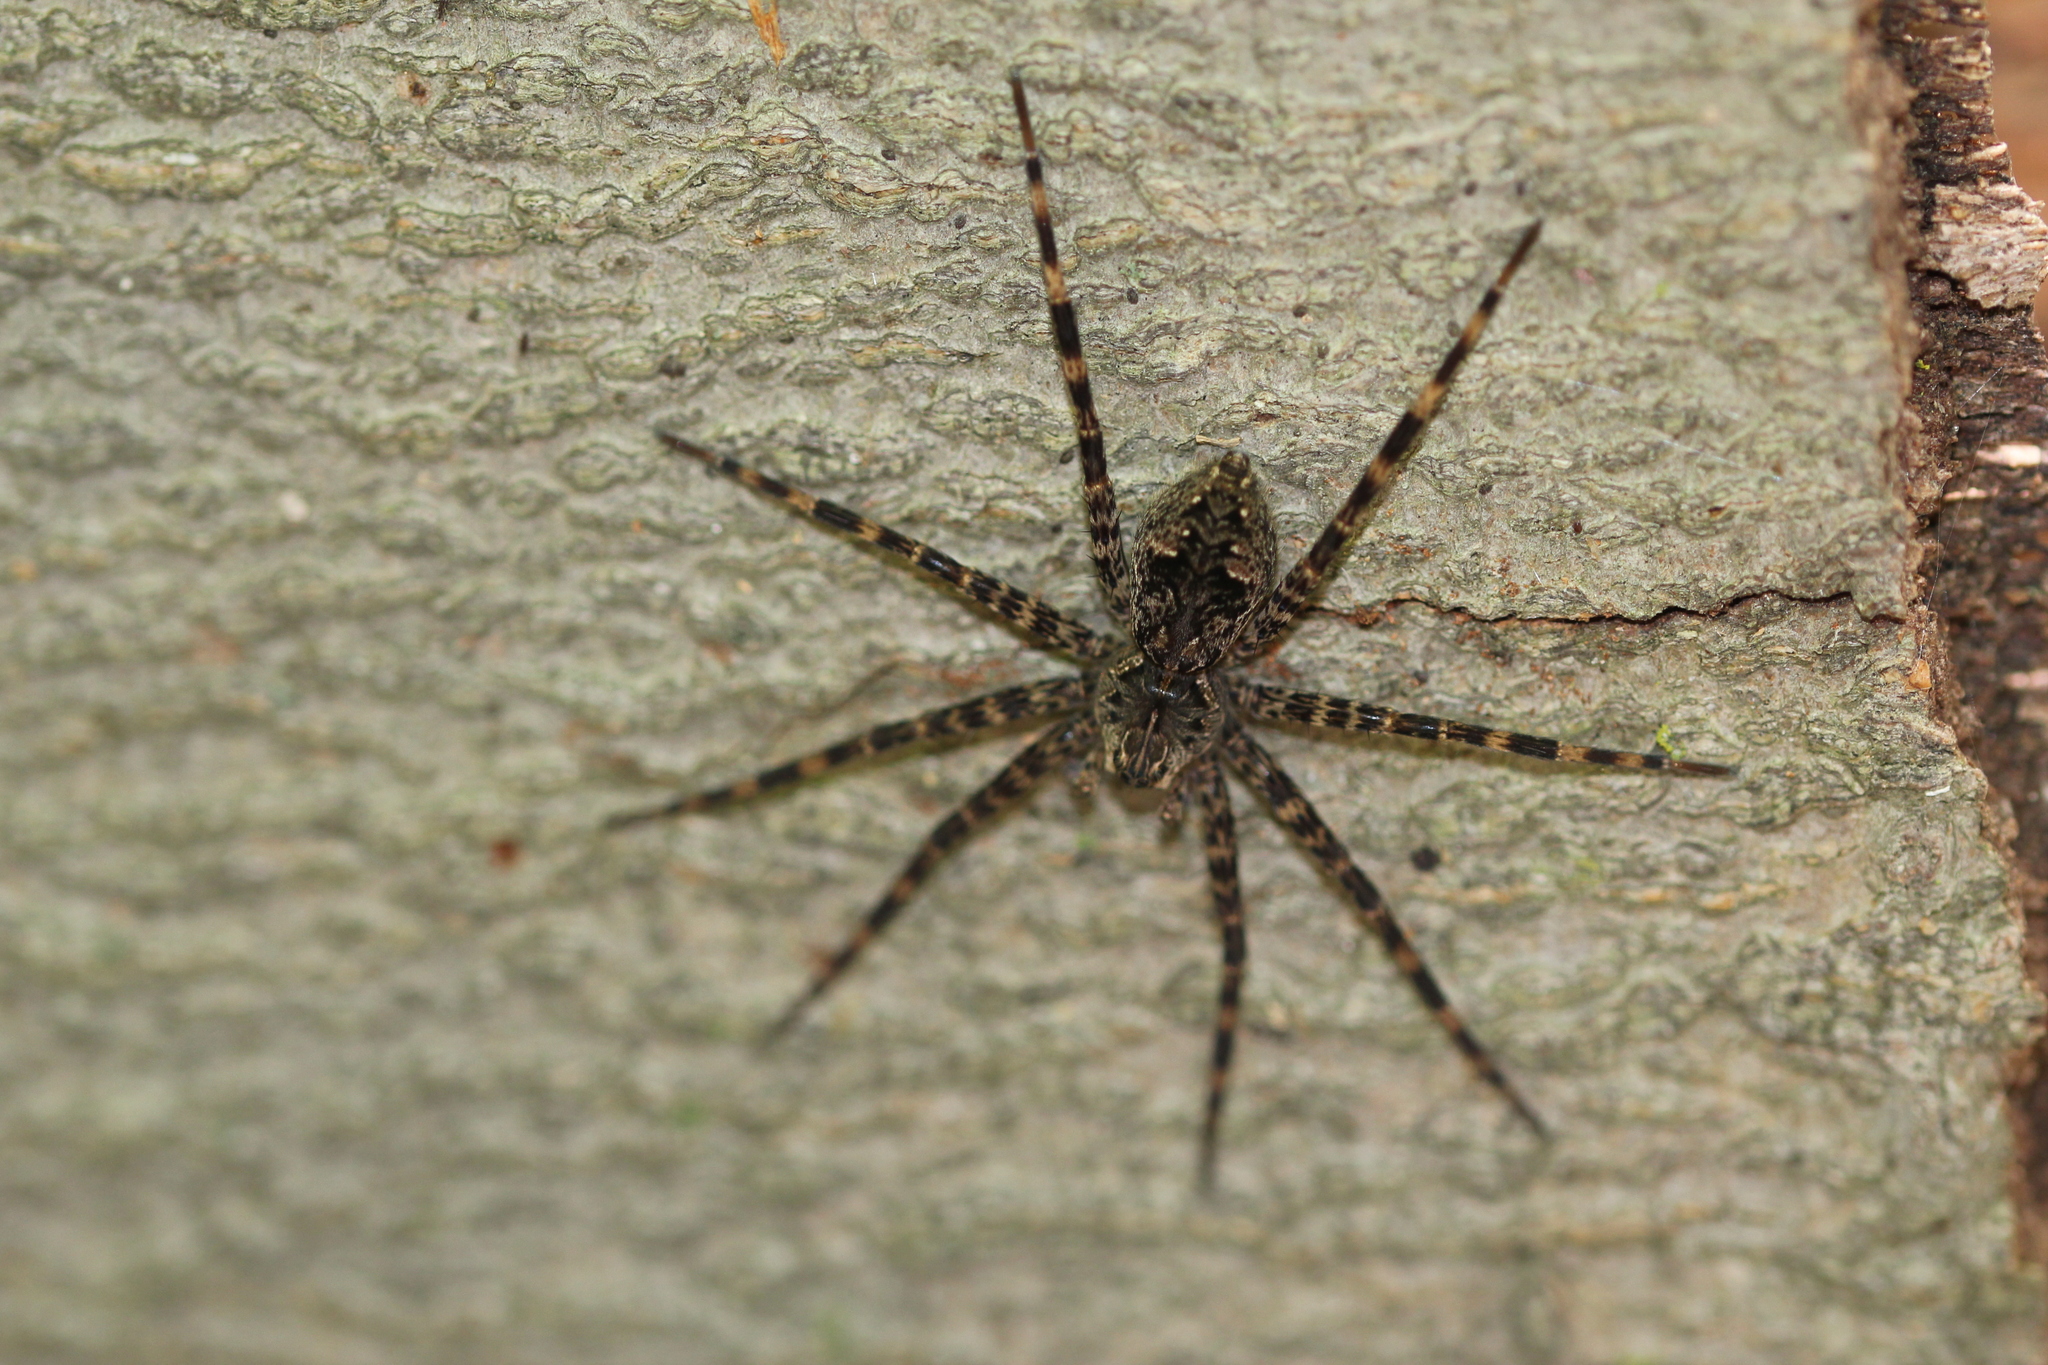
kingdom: Animalia
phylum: Arthropoda
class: Arachnida
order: Araneae
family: Pisauridae
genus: Dolomedes
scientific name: Dolomedes tenebrosus
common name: Dark fishing spider
